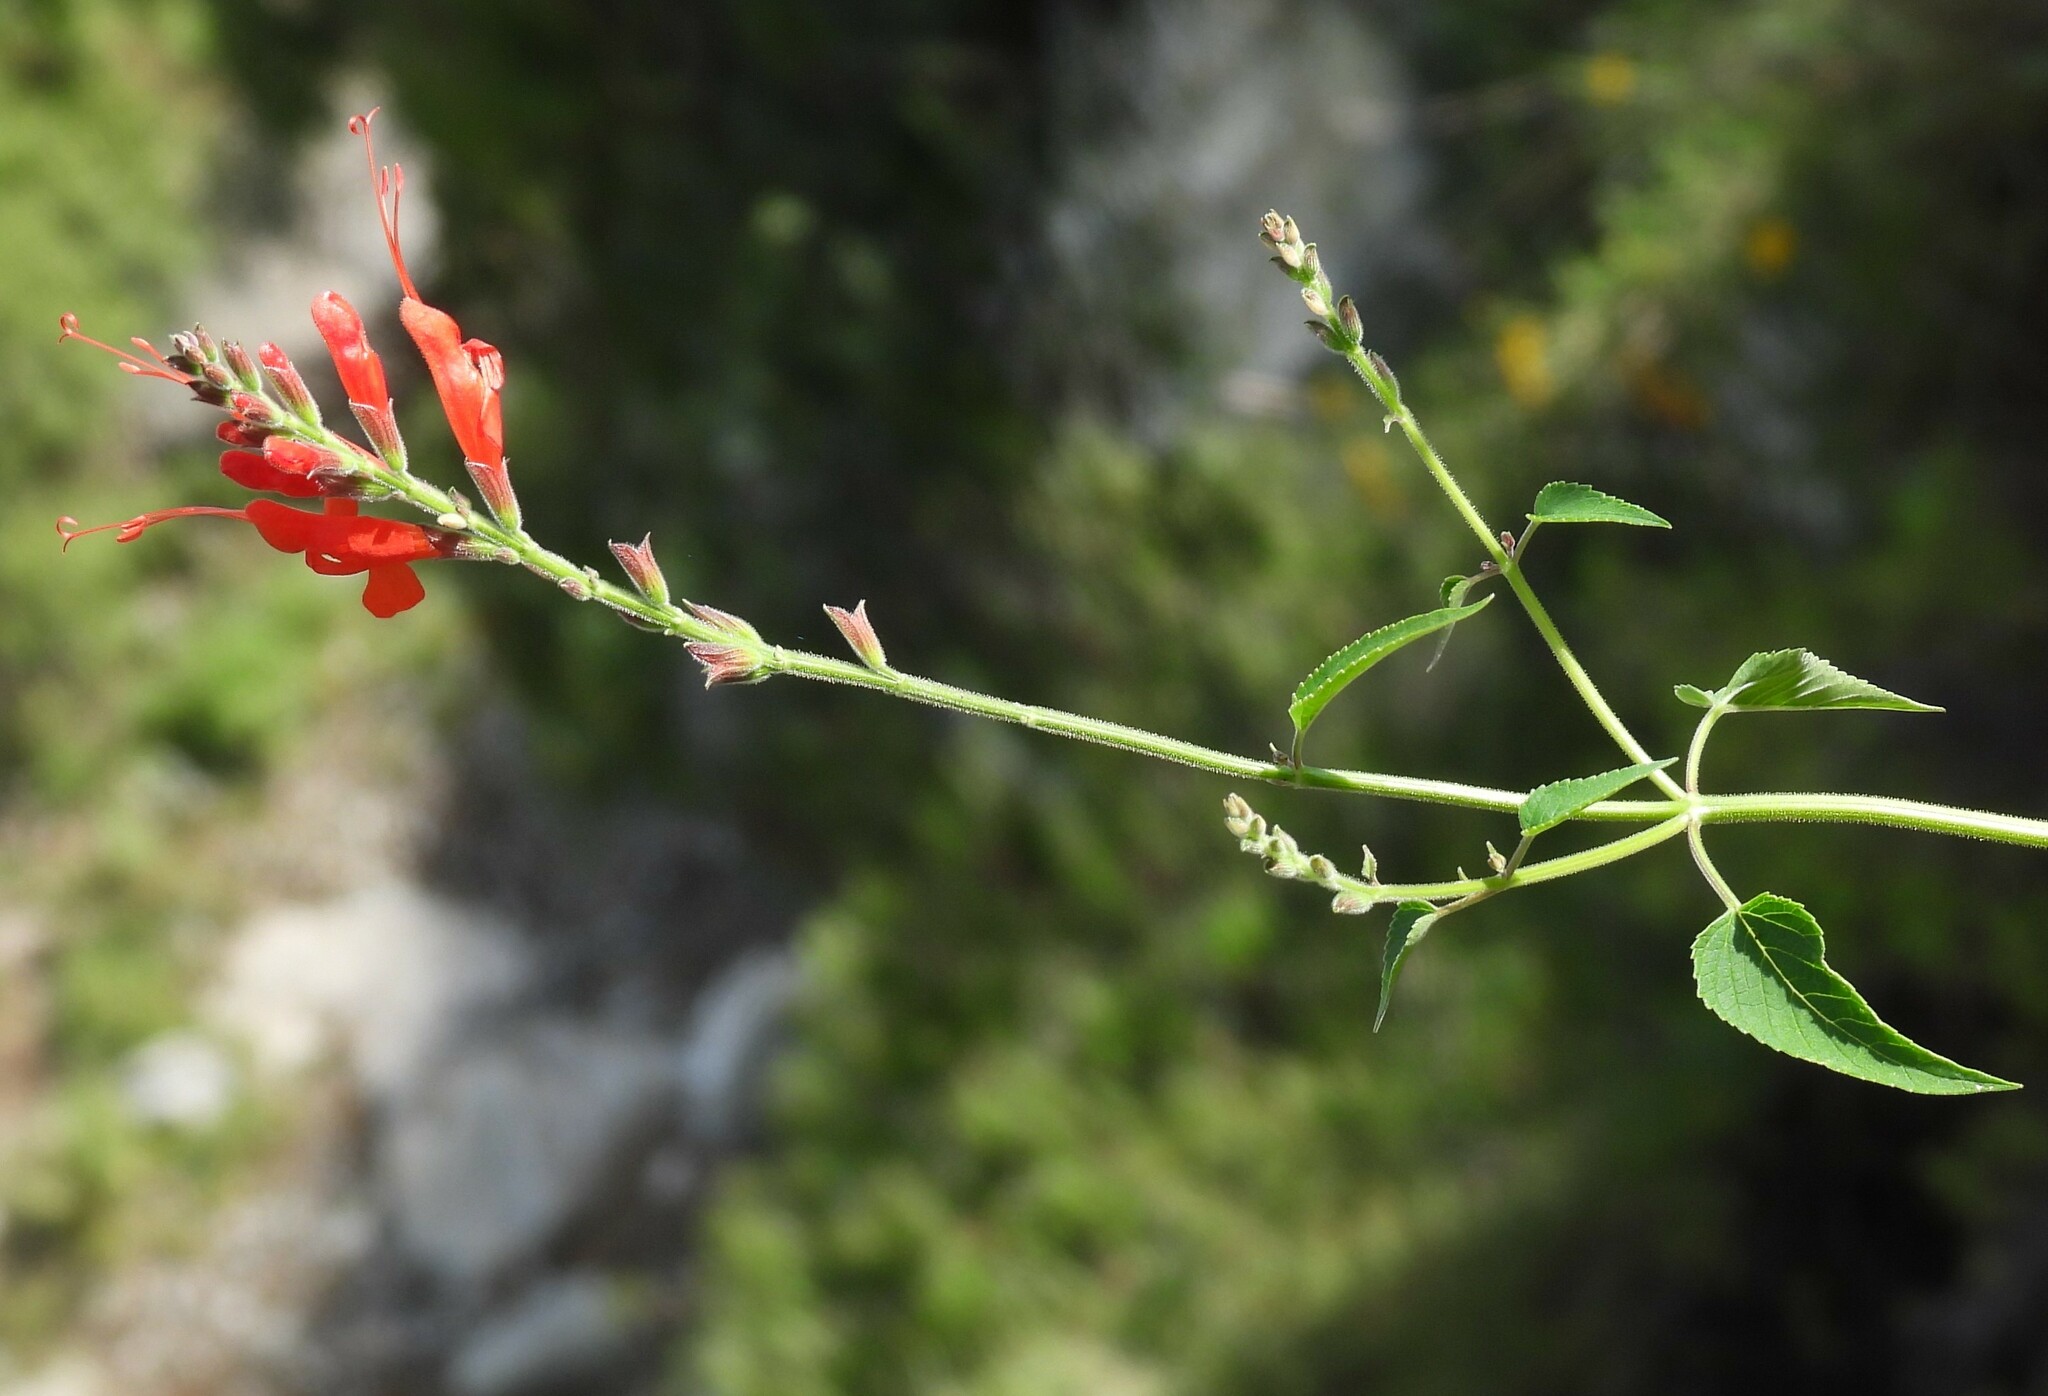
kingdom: Plantae
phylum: Tracheophyta
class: Magnoliopsida
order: Lamiales
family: Lamiaceae
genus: Salvia
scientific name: Salvia exserta
